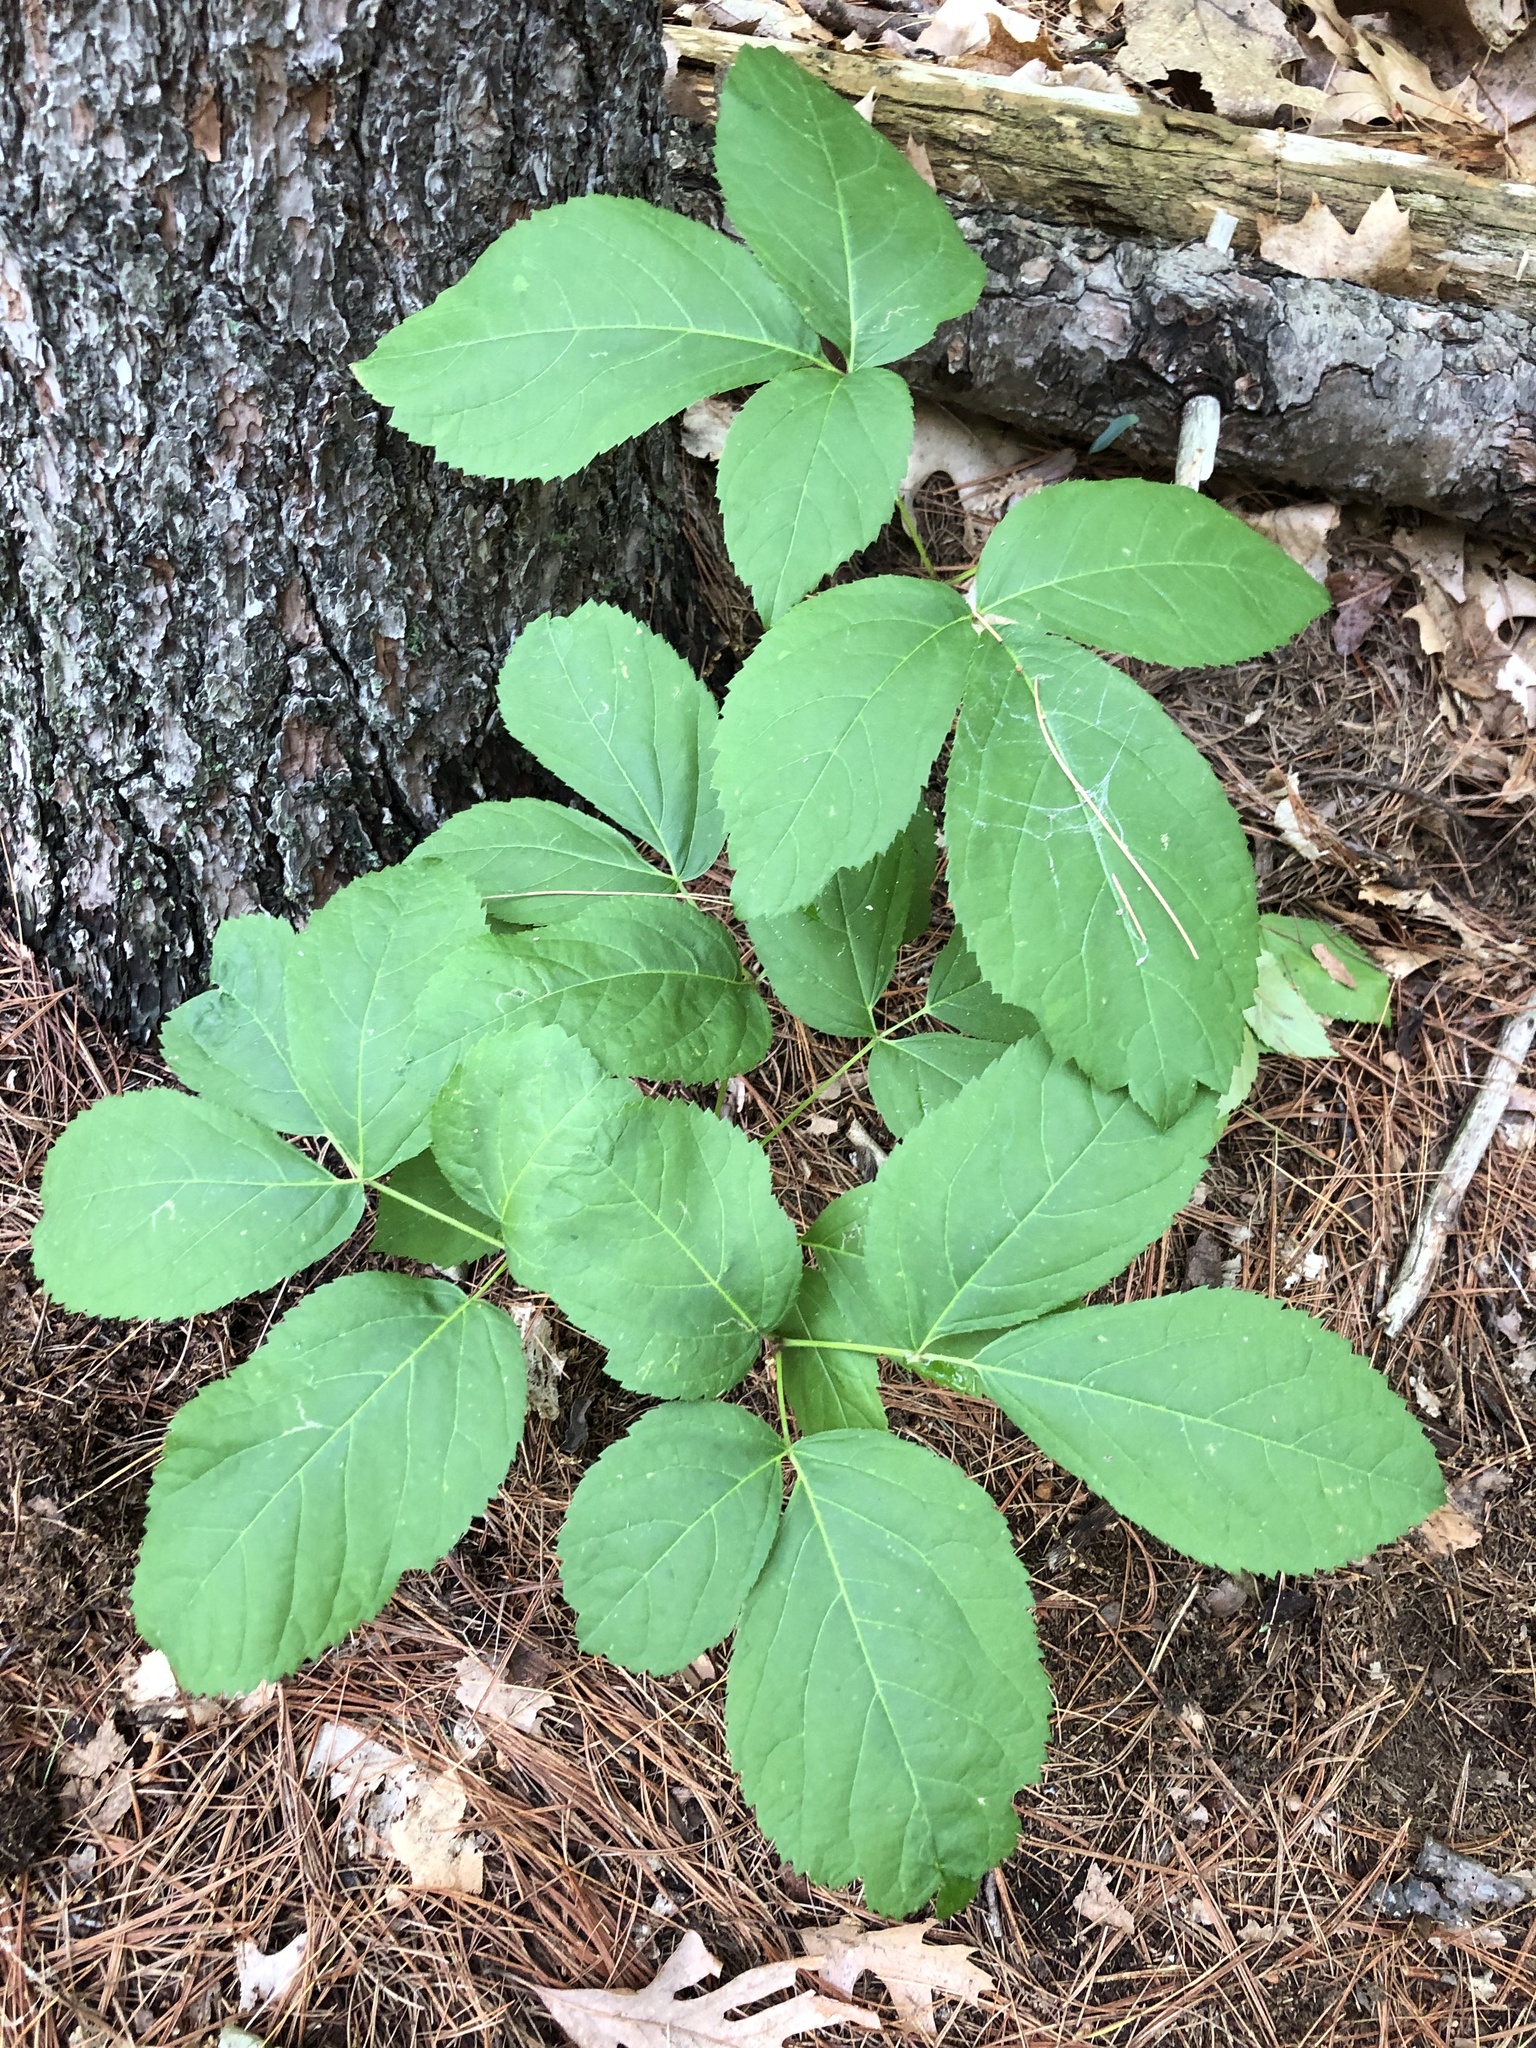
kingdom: Plantae
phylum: Tracheophyta
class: Magnoliopsida
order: Apiales
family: Araliaceae
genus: Aralia
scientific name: Aralia nudicaulis
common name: Wild sarsaparilla
